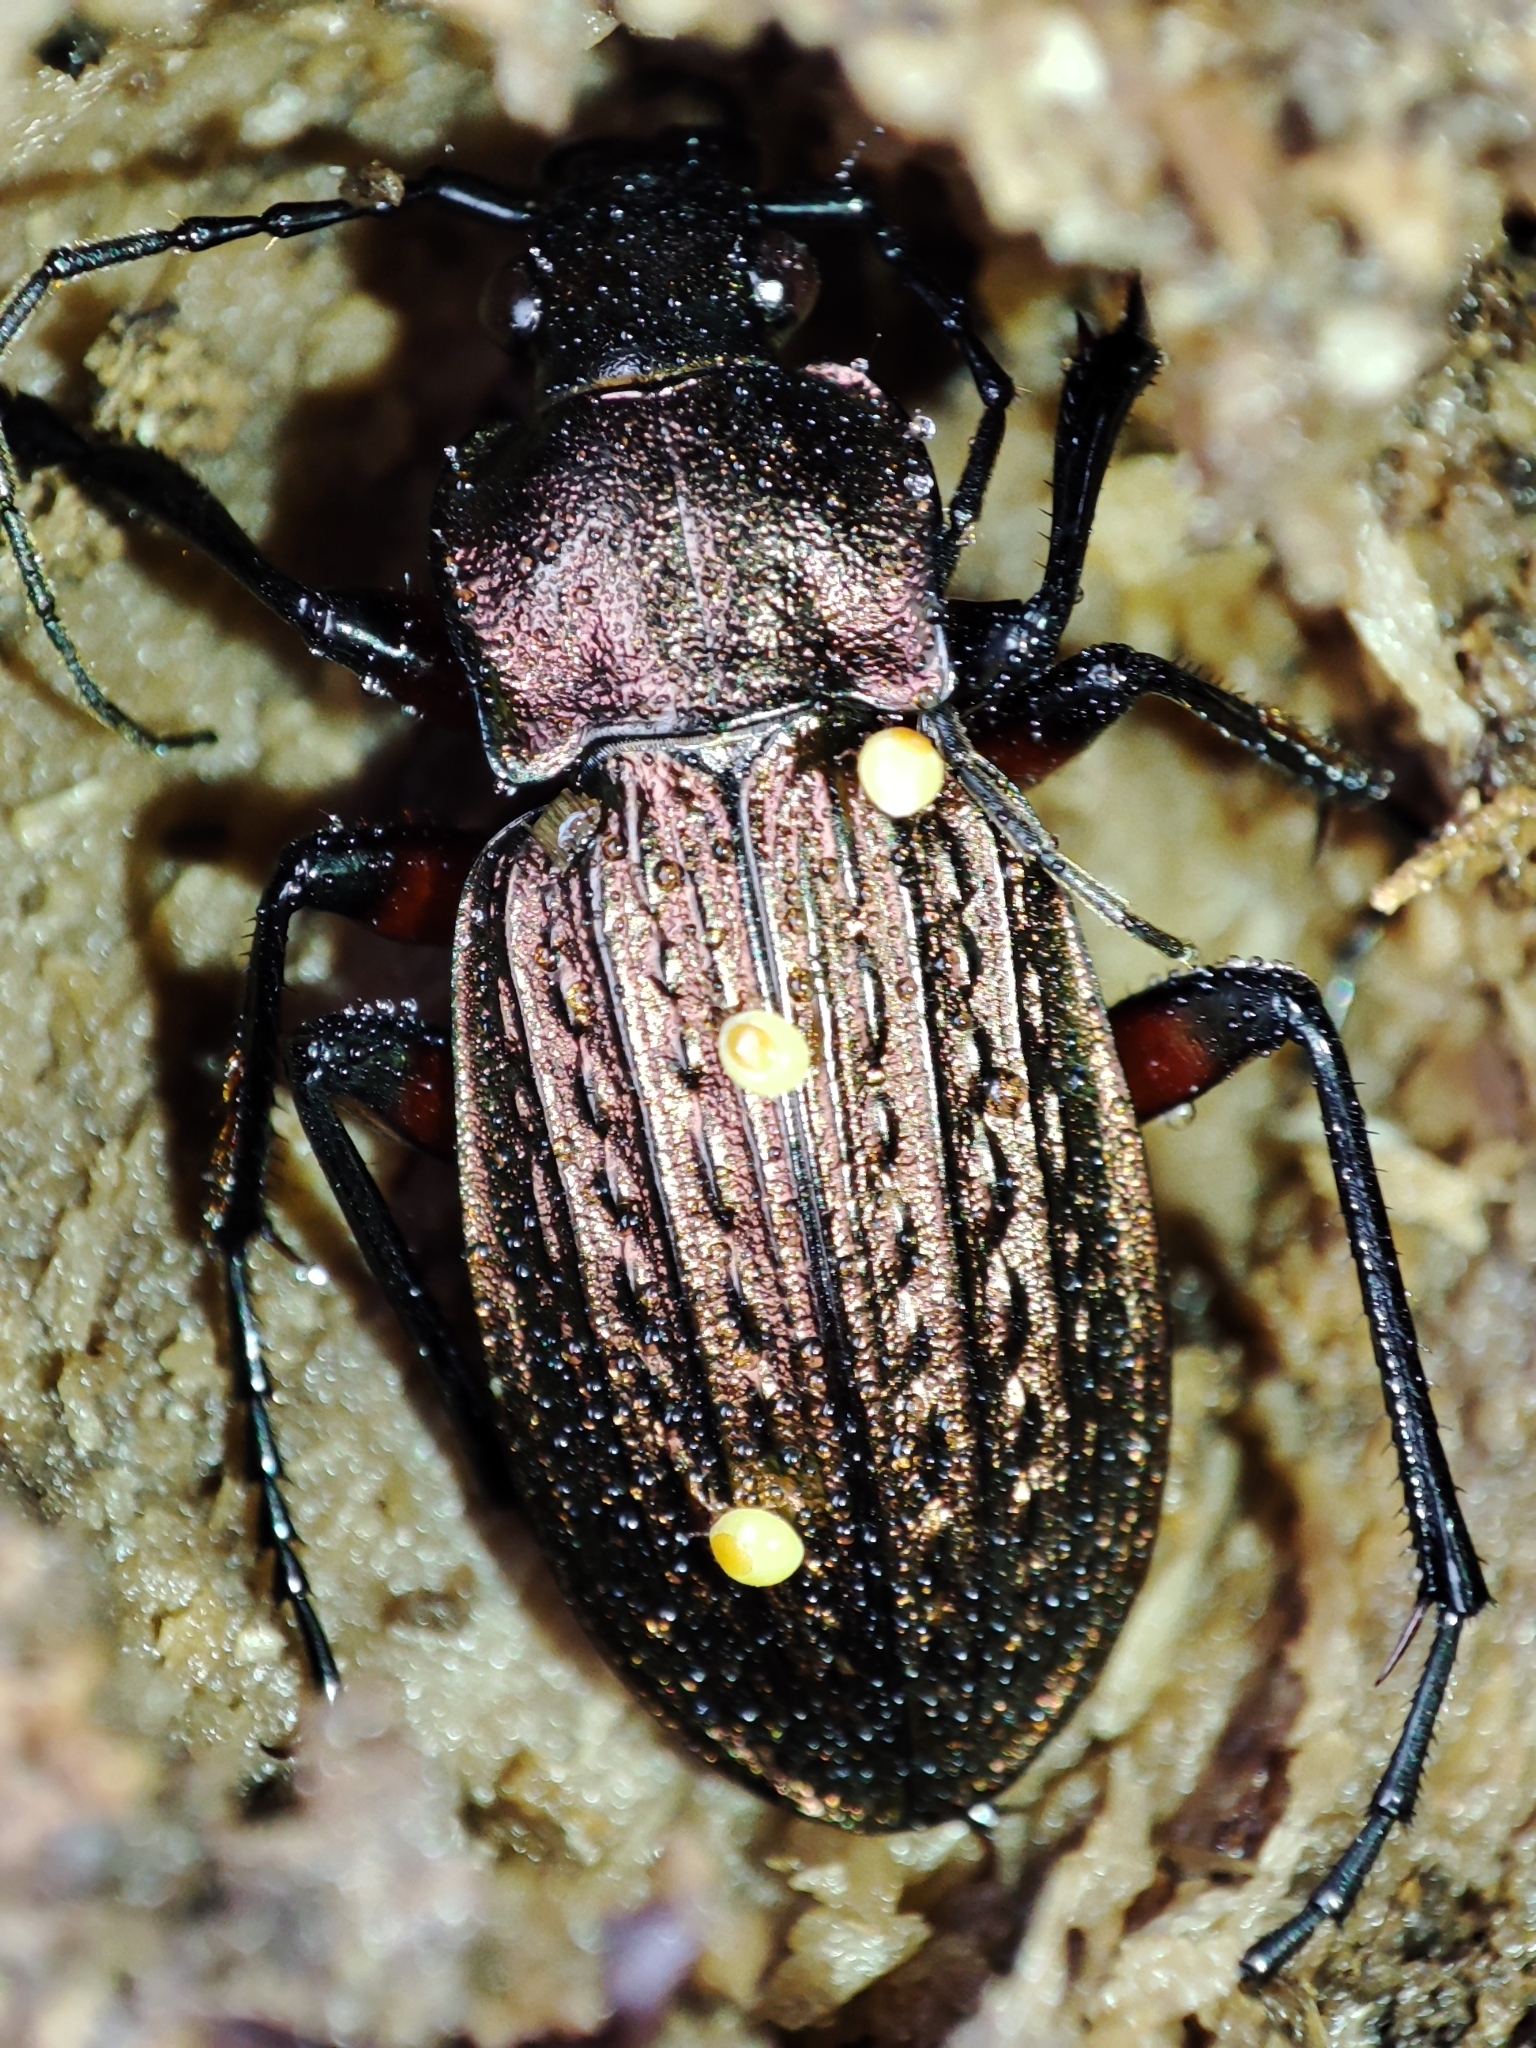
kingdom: Animalia
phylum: Arthropoda
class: Insecta
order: Coleoptera
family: Carabidae
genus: Carabus
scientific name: Carabus granulatus
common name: Granulate ground beetle
